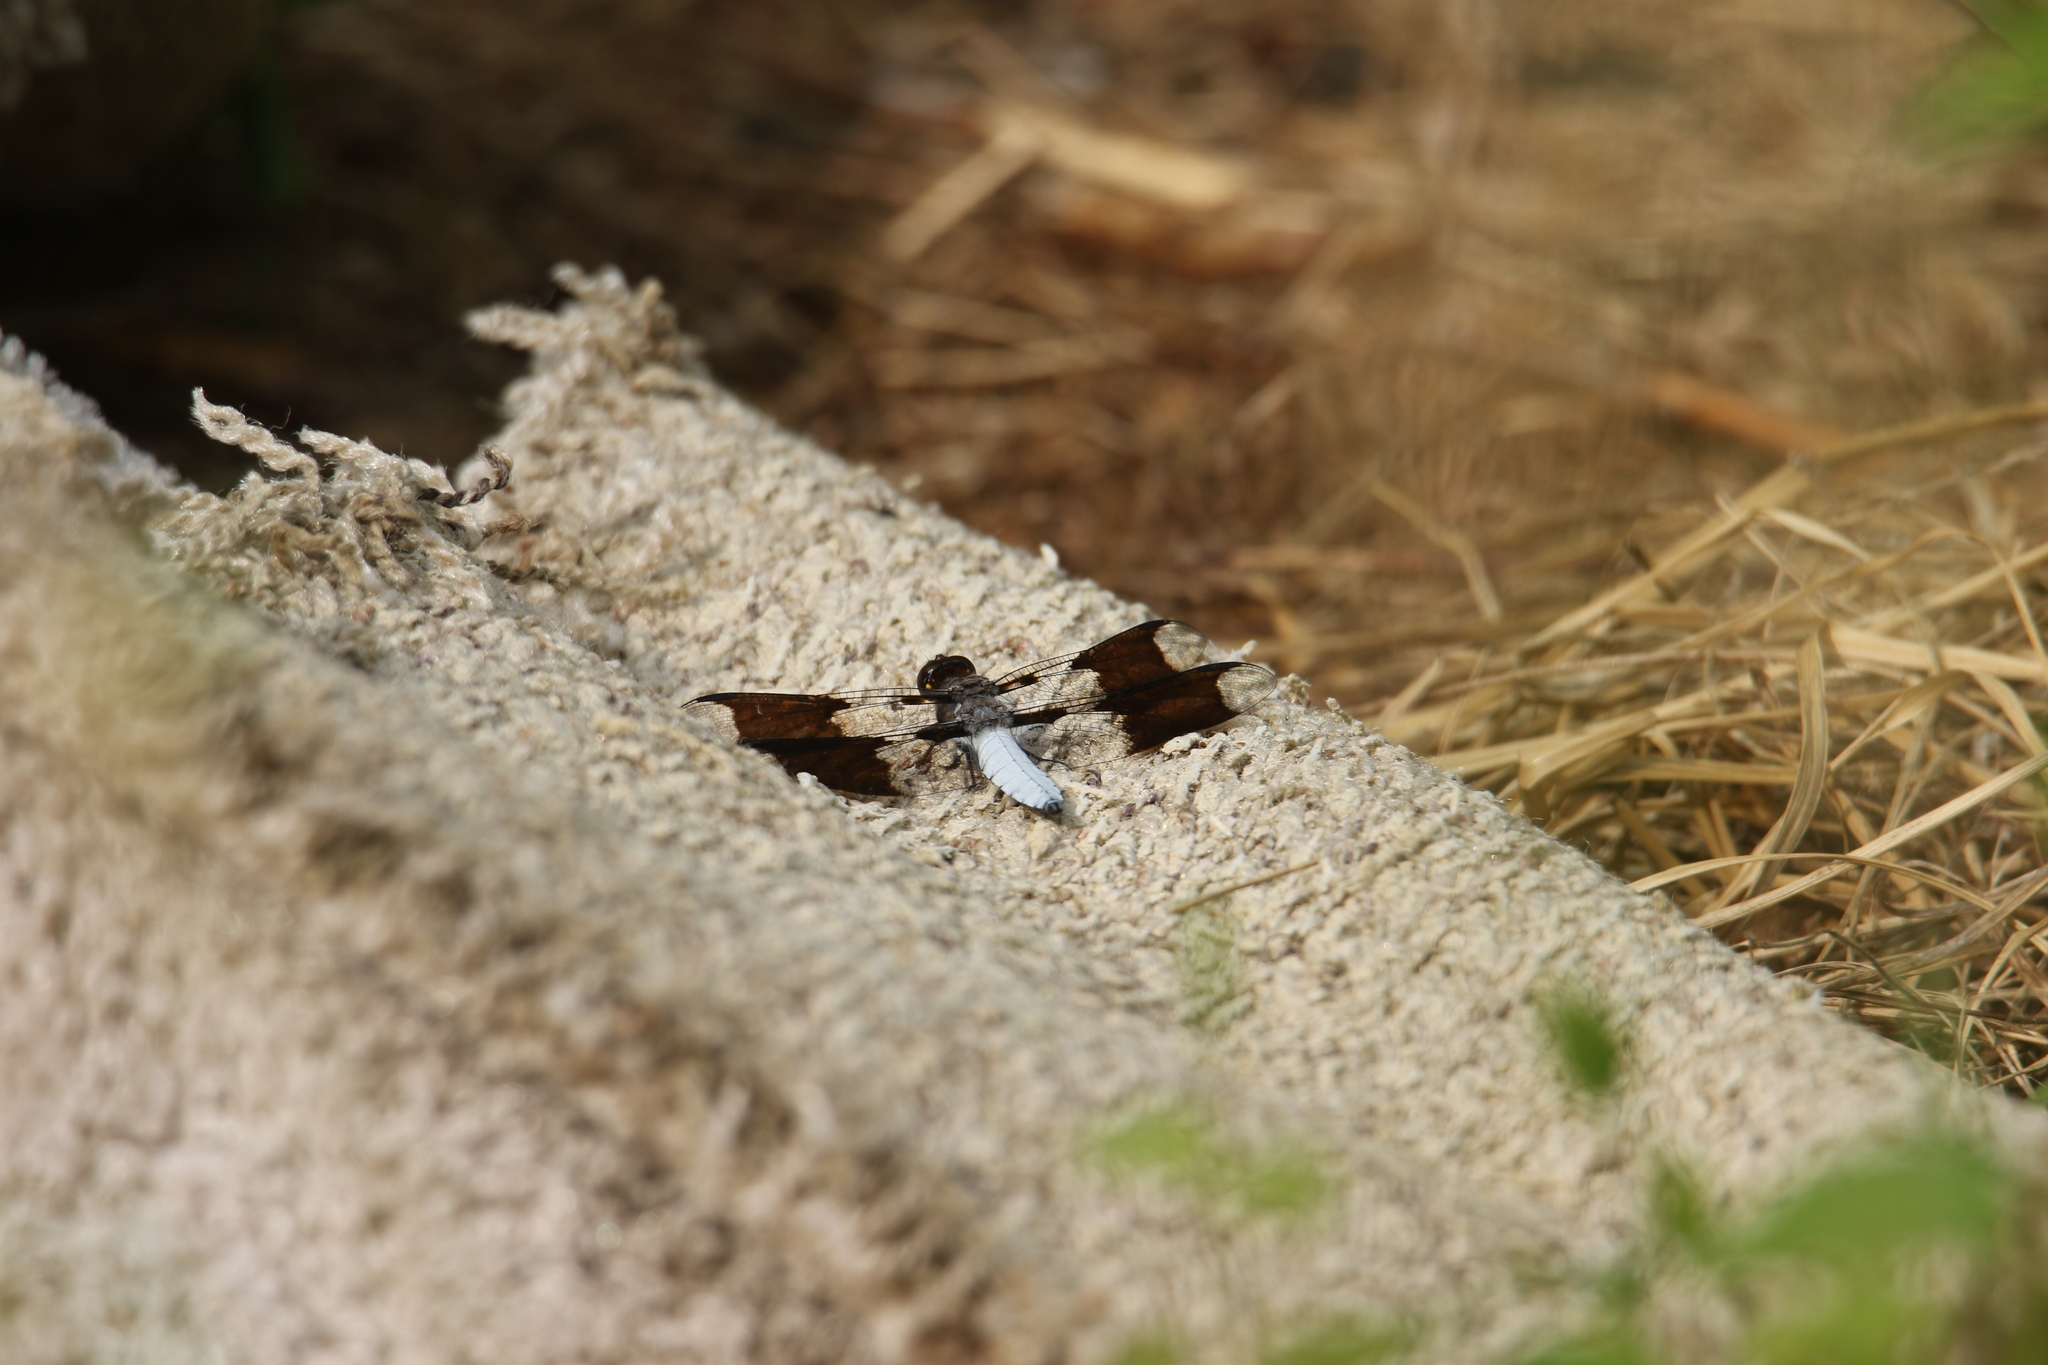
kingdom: Animalia
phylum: Arthropoda
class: Insecta
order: Odonata
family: Libellulidae
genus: Plathemis
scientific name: Plathemis lydia
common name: Common whitetail
